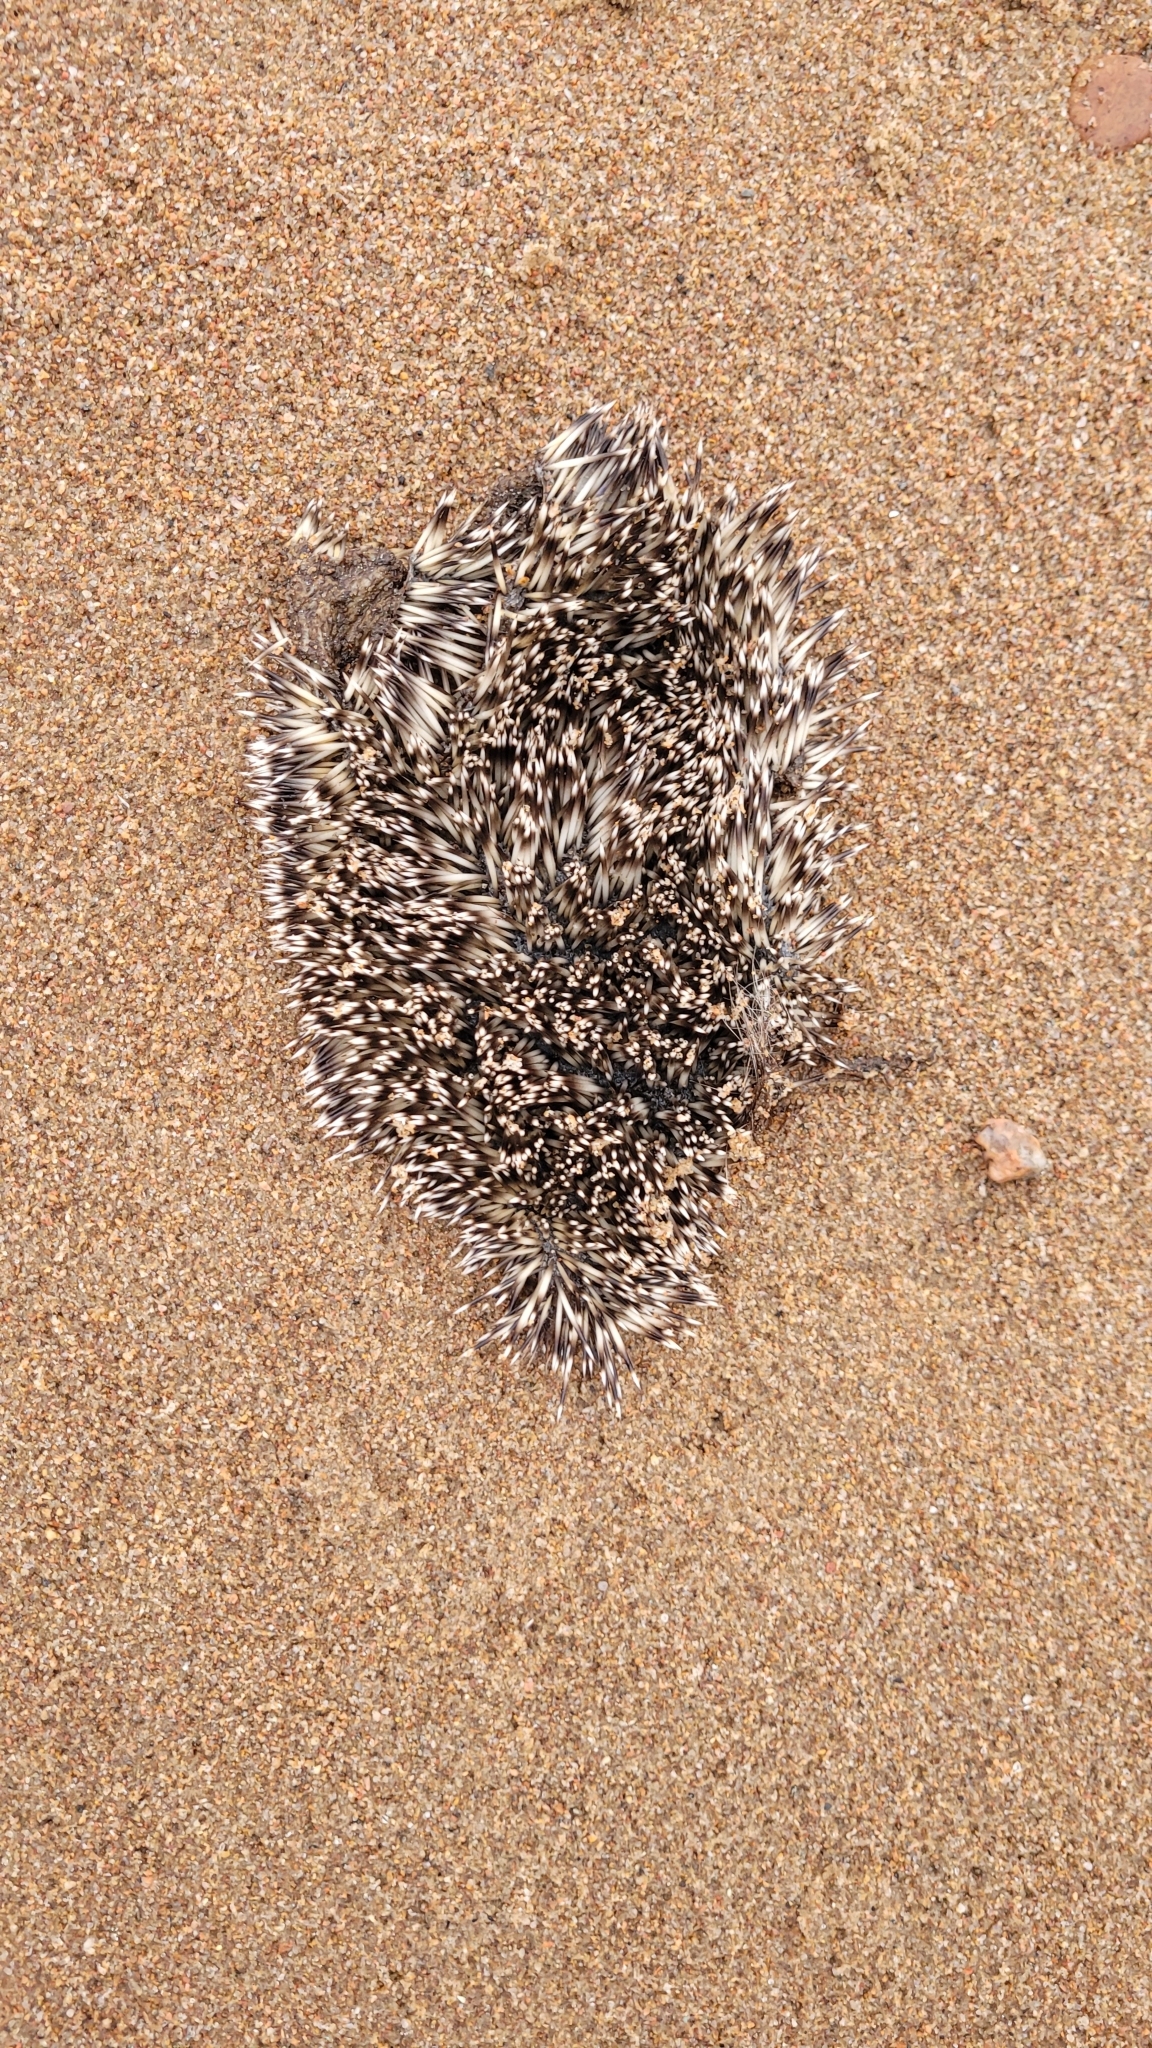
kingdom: Animalia
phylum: Chordata
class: Mammalia
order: Erinaceomorpha
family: Erinaceidae
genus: Erinaceus
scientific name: Erinaceus europaeus
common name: West european hedgehog
